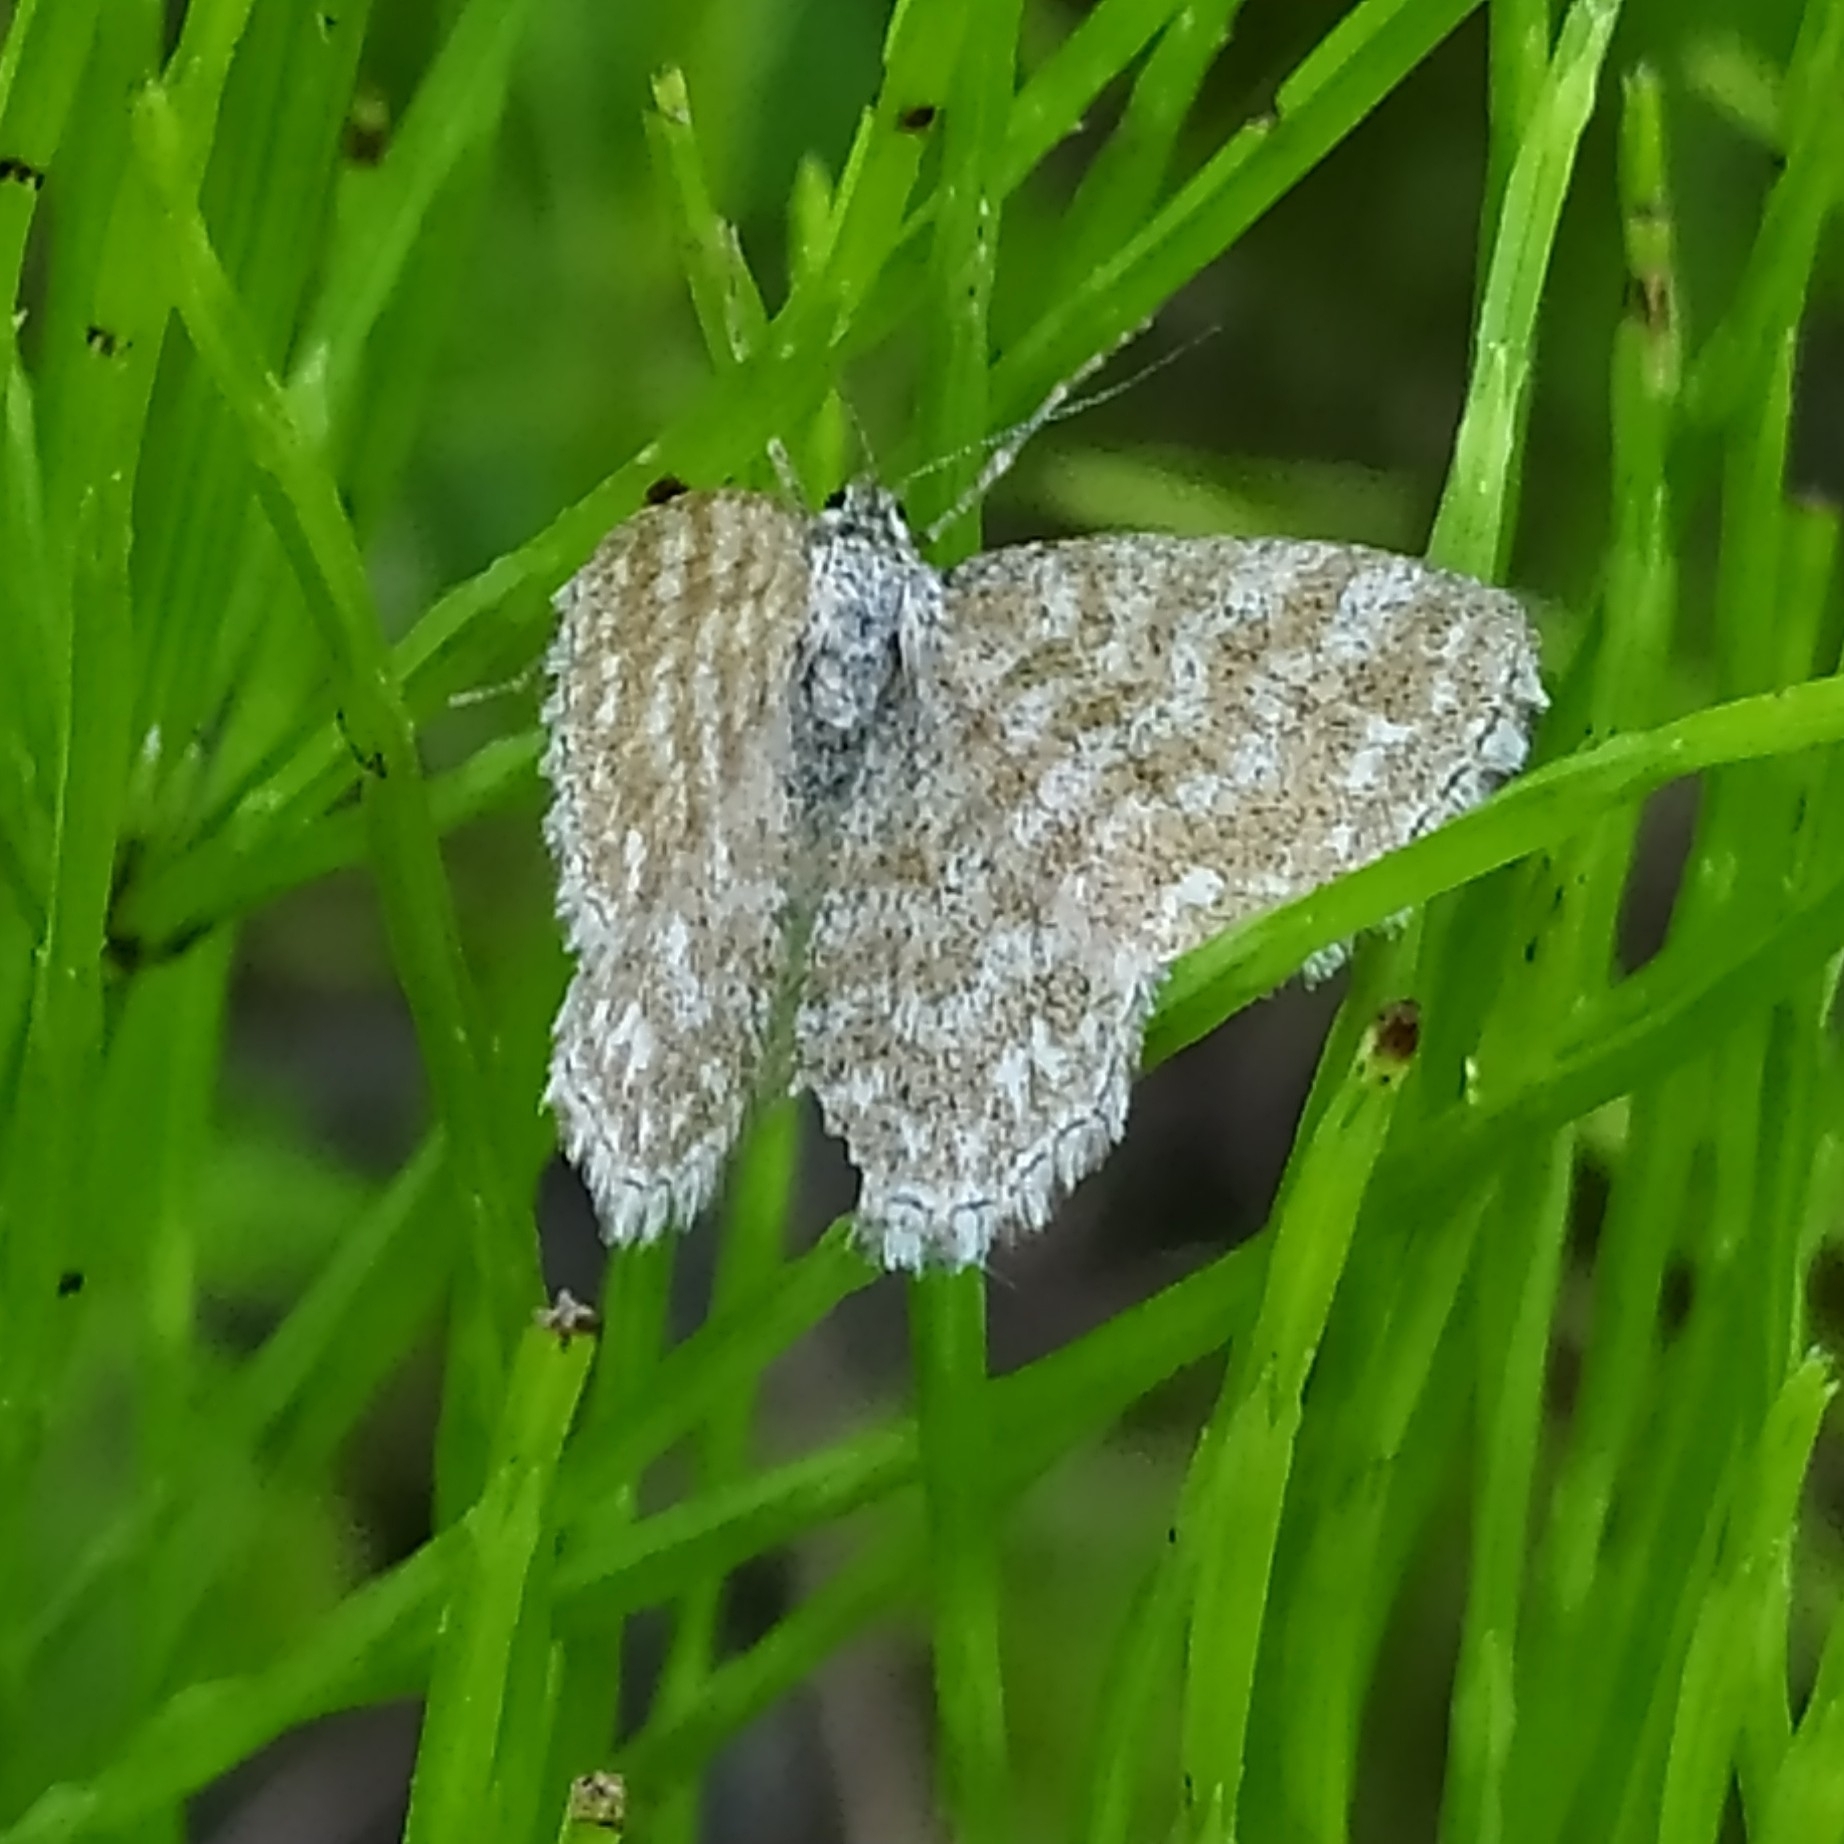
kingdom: Animalia
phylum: Arthropoda
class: Insecta
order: Lepidoptera
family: Geometridae
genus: Scopula
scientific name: Scopula immorata
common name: Lewes wave
